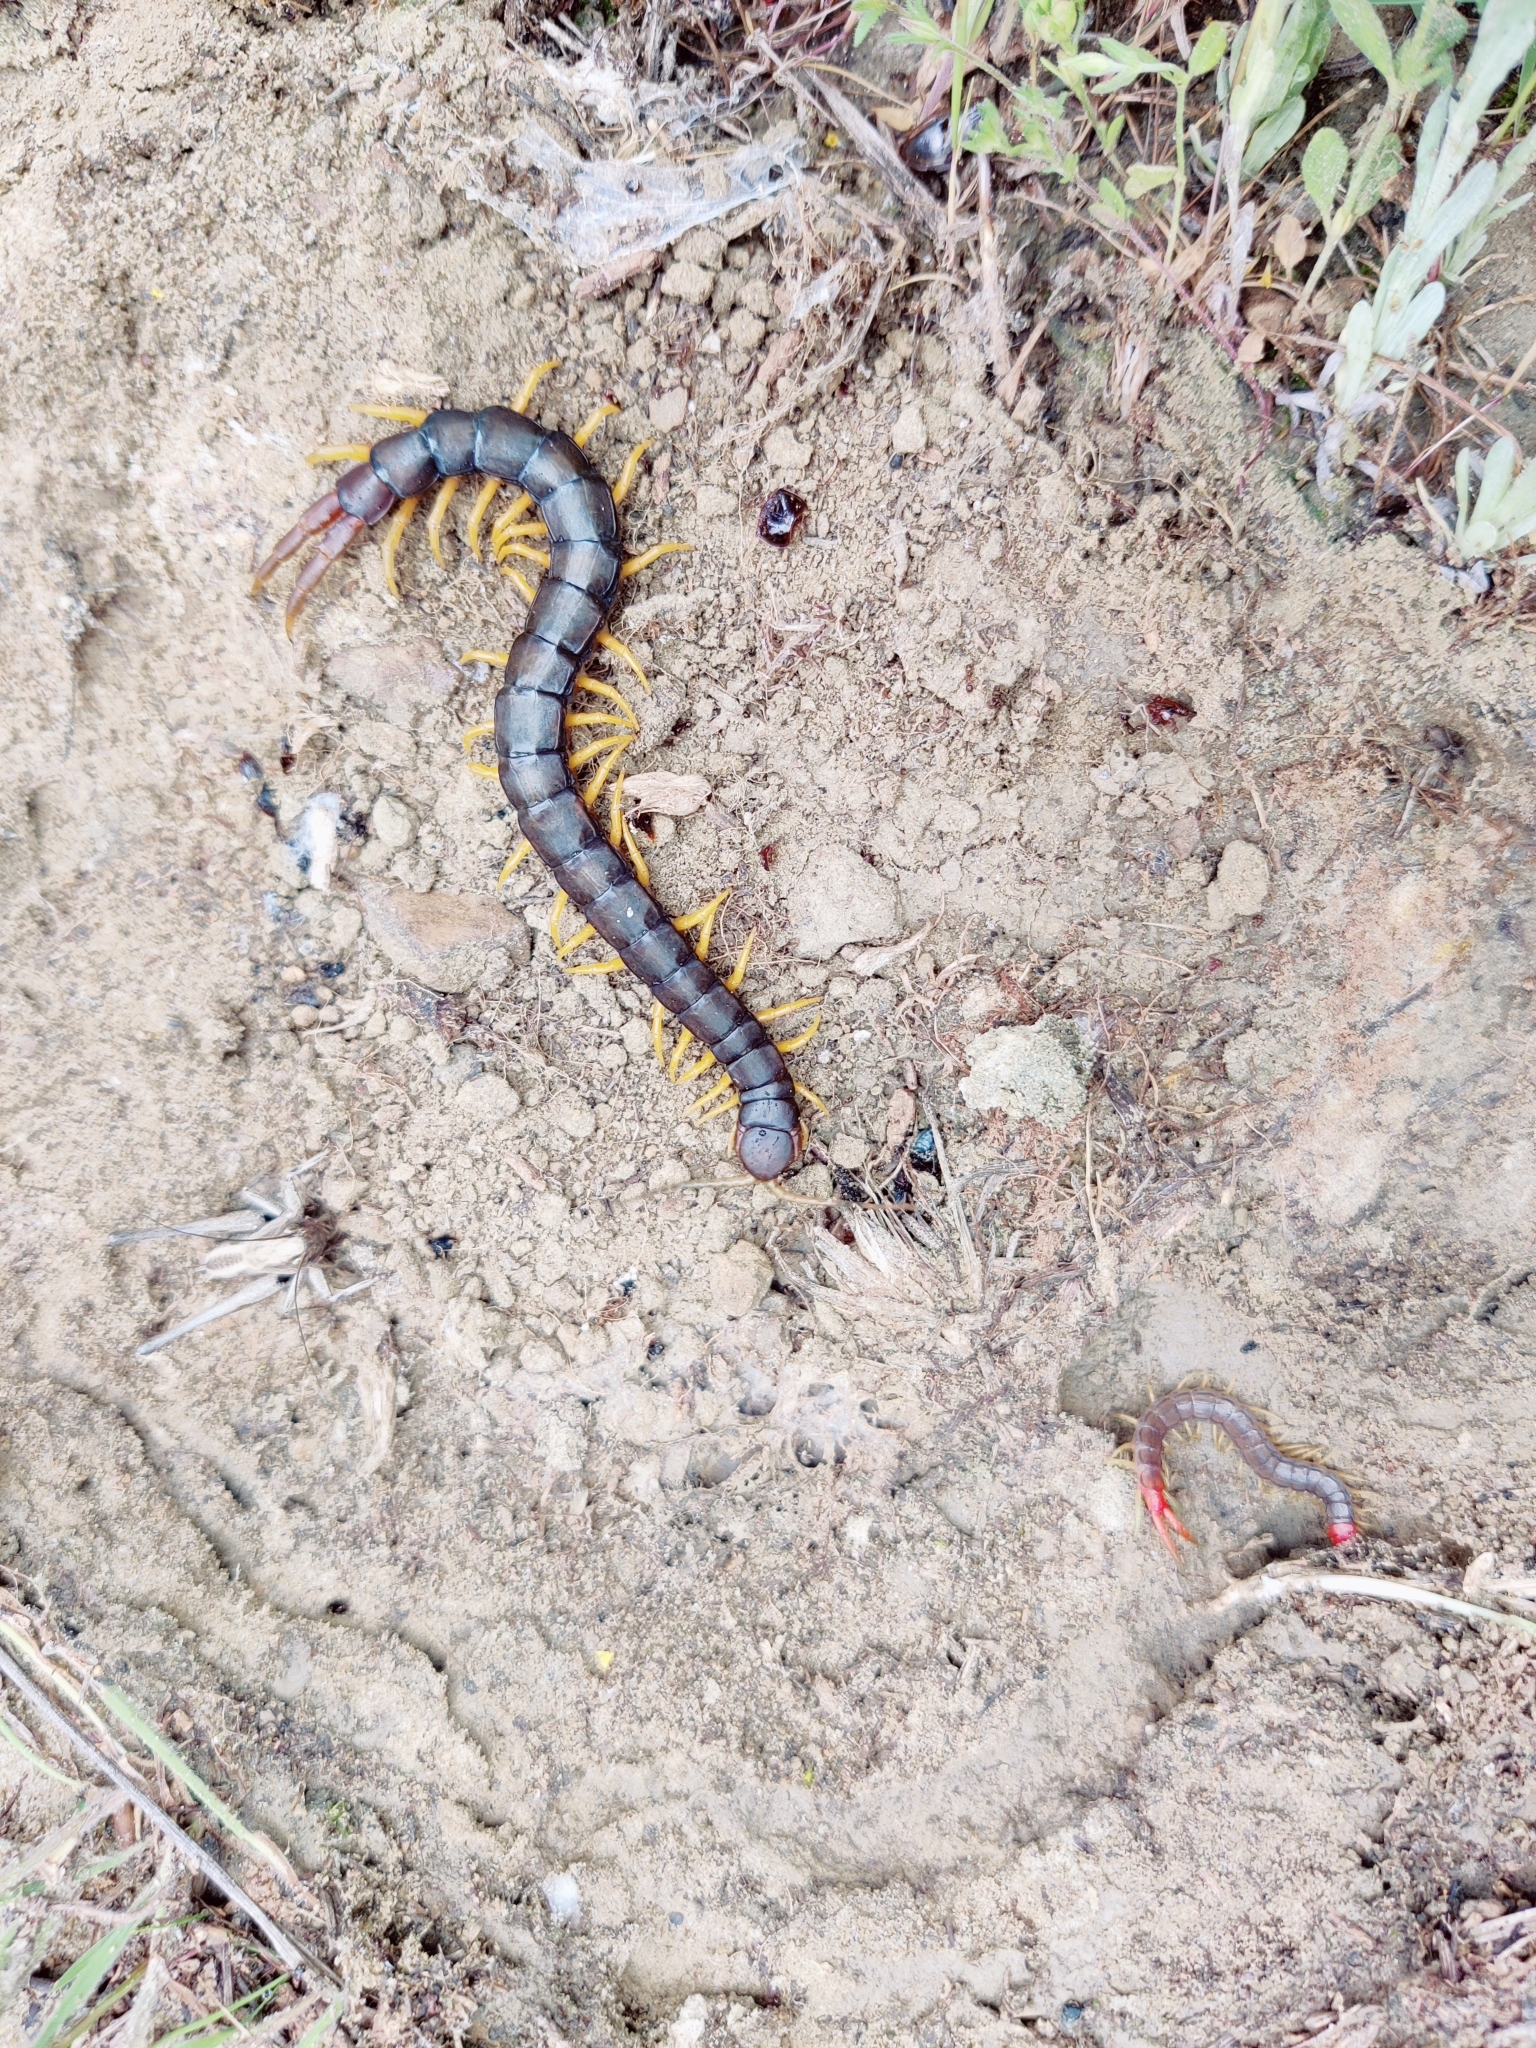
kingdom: Animalia
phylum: Arthropoda
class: Chilopoda
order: Scolopendromorpha
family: Scolopendridae
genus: Scolopendra
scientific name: Scolopendra cingulata
